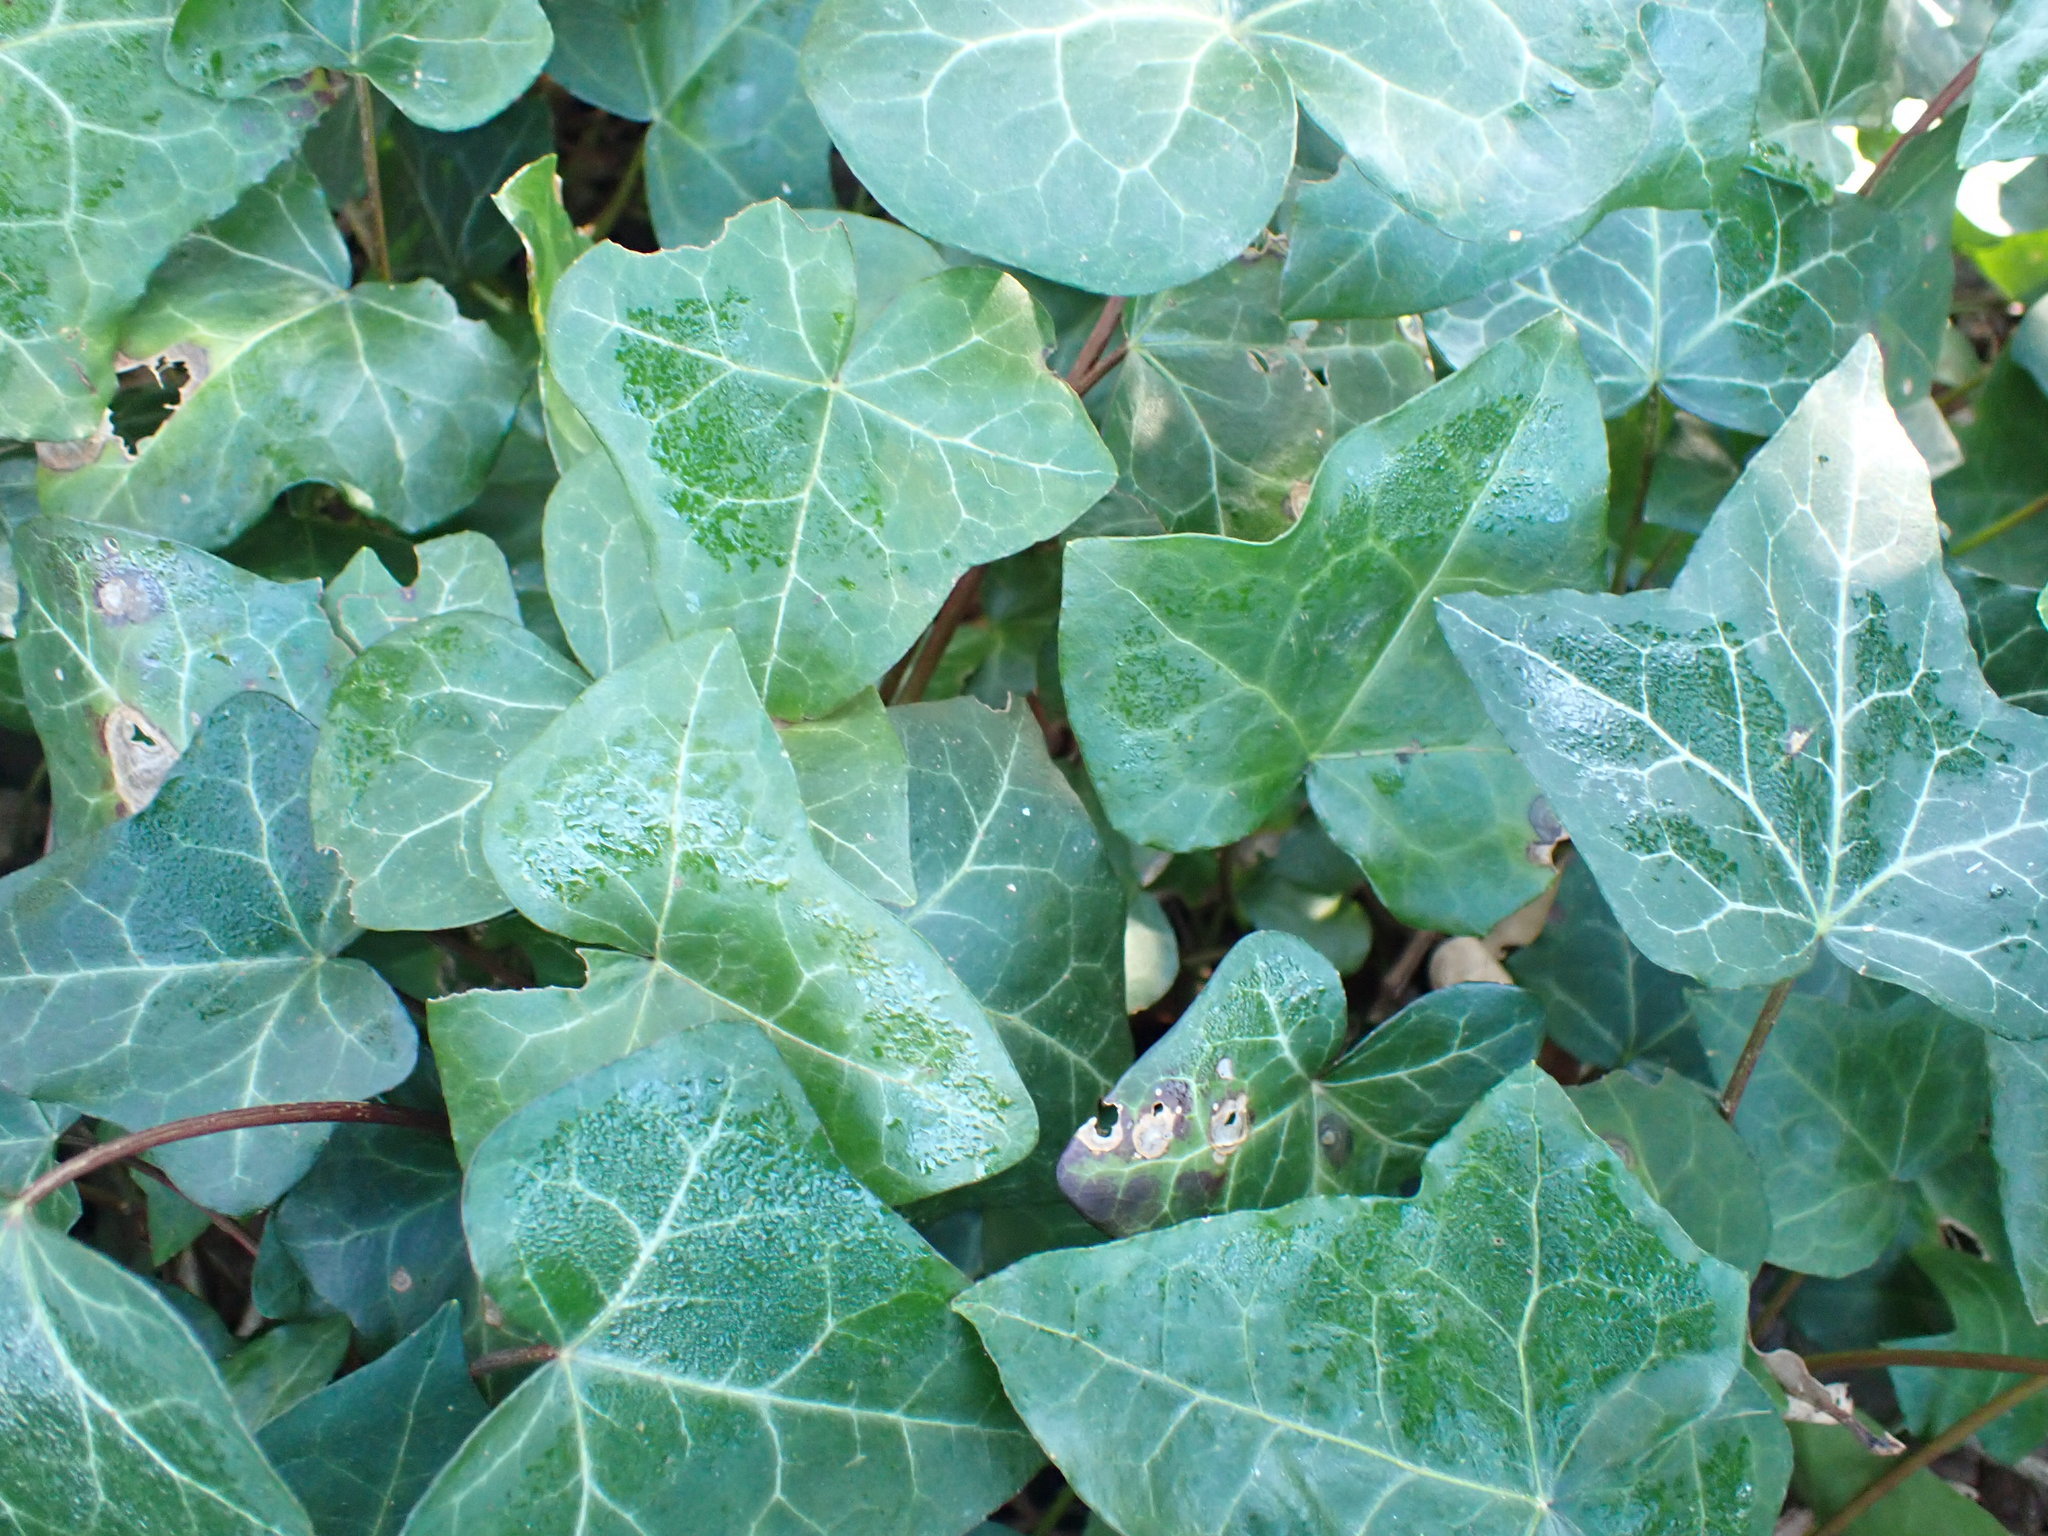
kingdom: Plantae
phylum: Tracheophyta
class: Magnoliopsida
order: Apiales
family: Araliaceae
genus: Hedera
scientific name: Hedera helix
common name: Ivy
